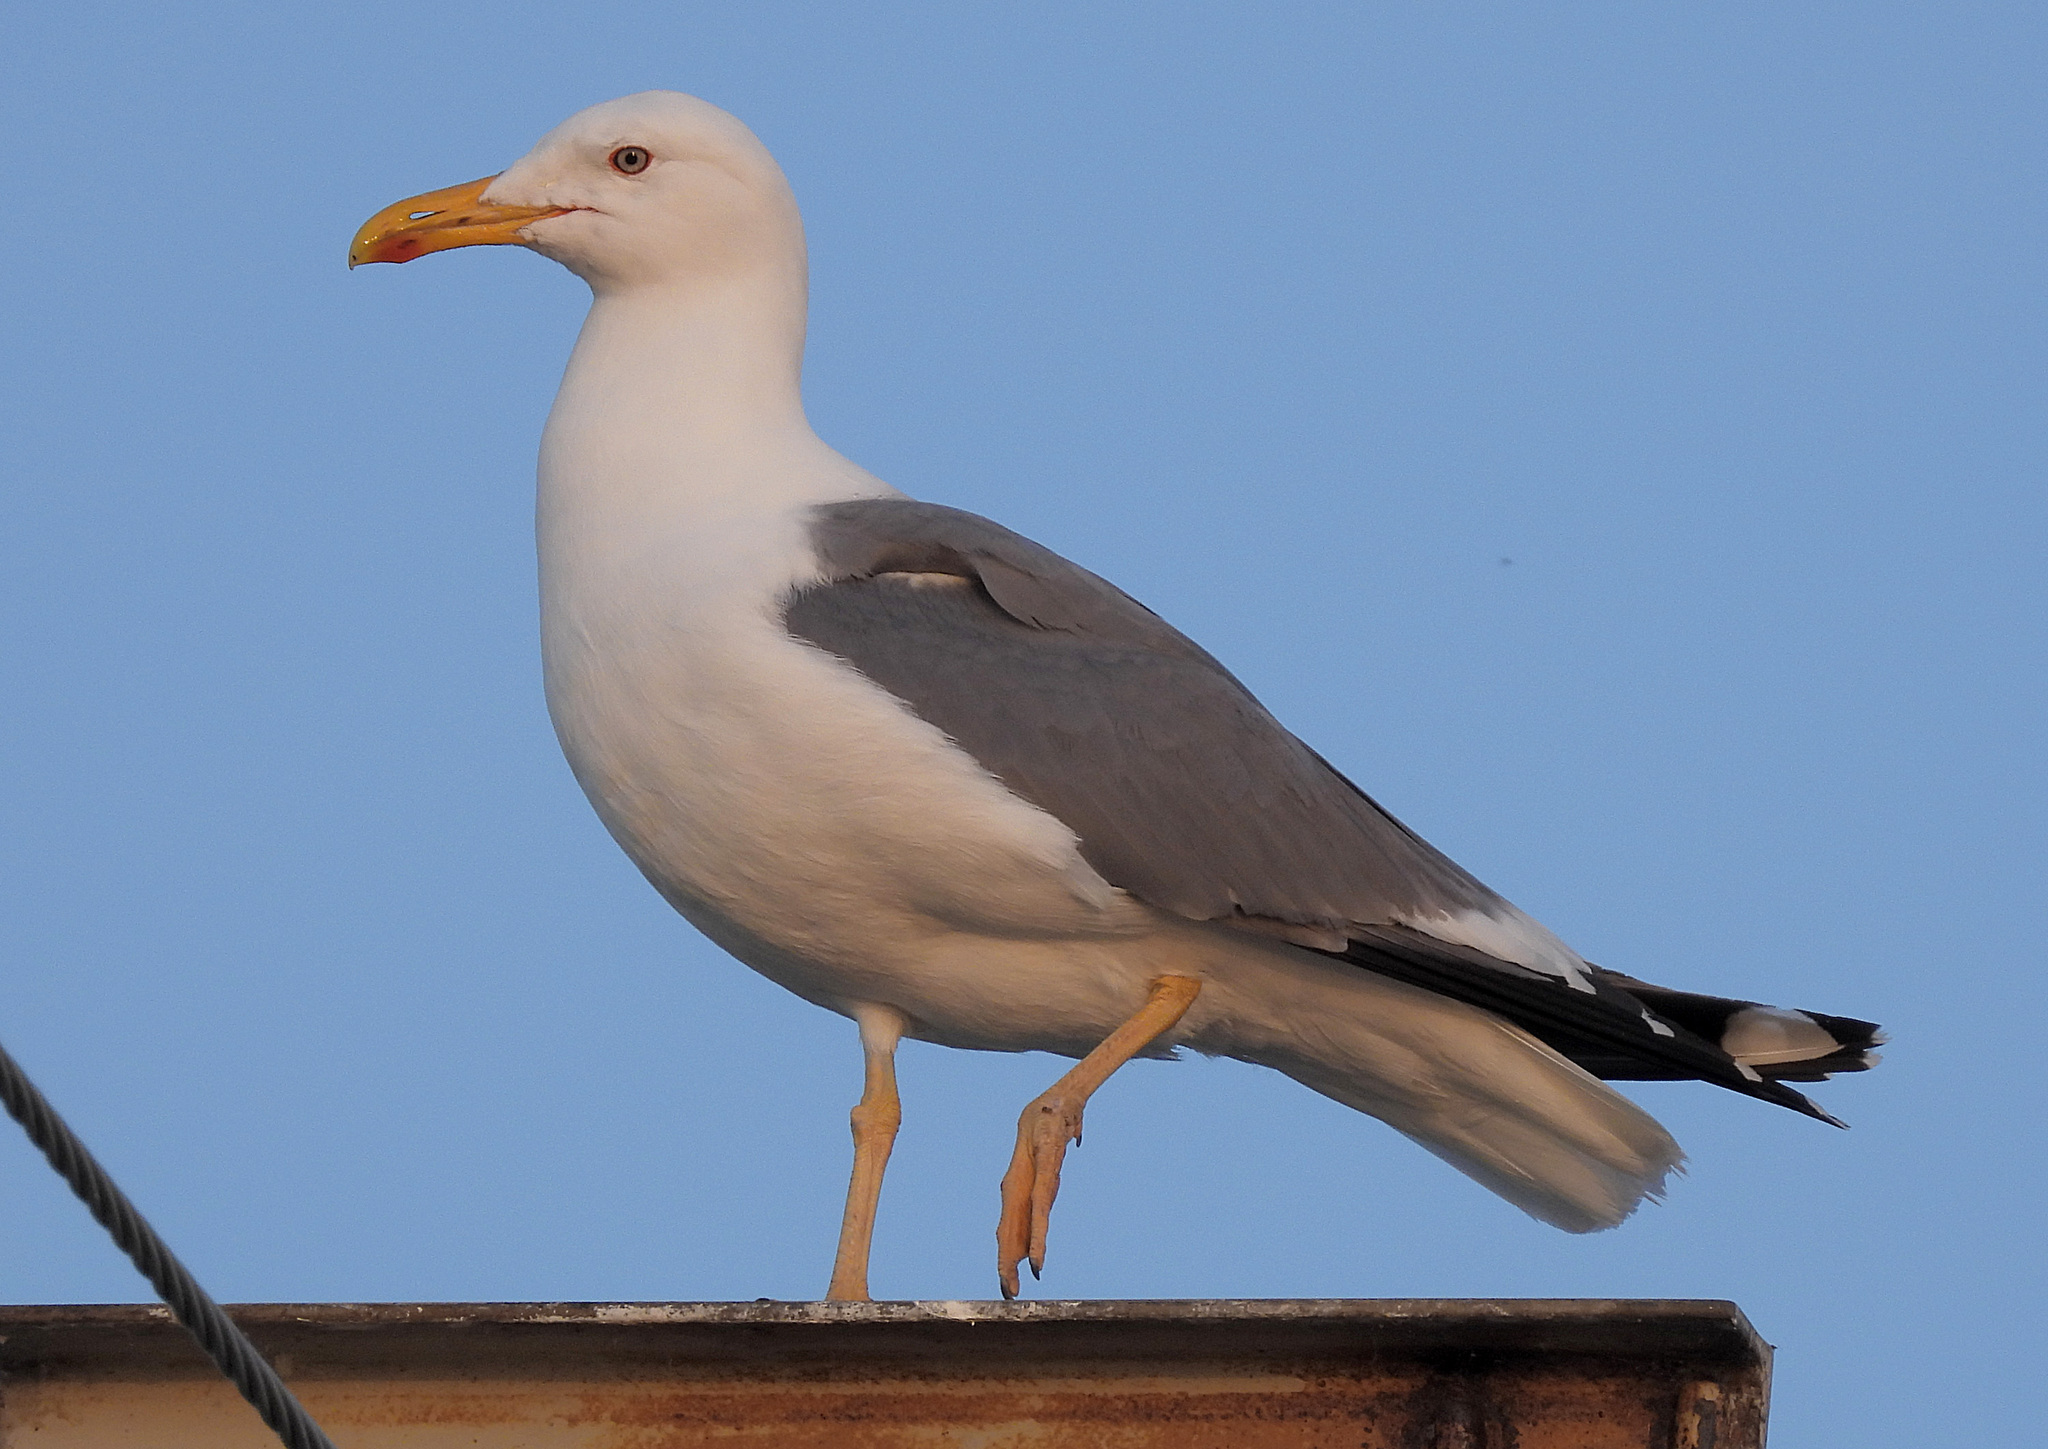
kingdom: Animalia
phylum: Chordata
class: Aves
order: Charadriiformes
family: Laridae
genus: Larus
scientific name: Larus cachinnans
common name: Caspian gull
